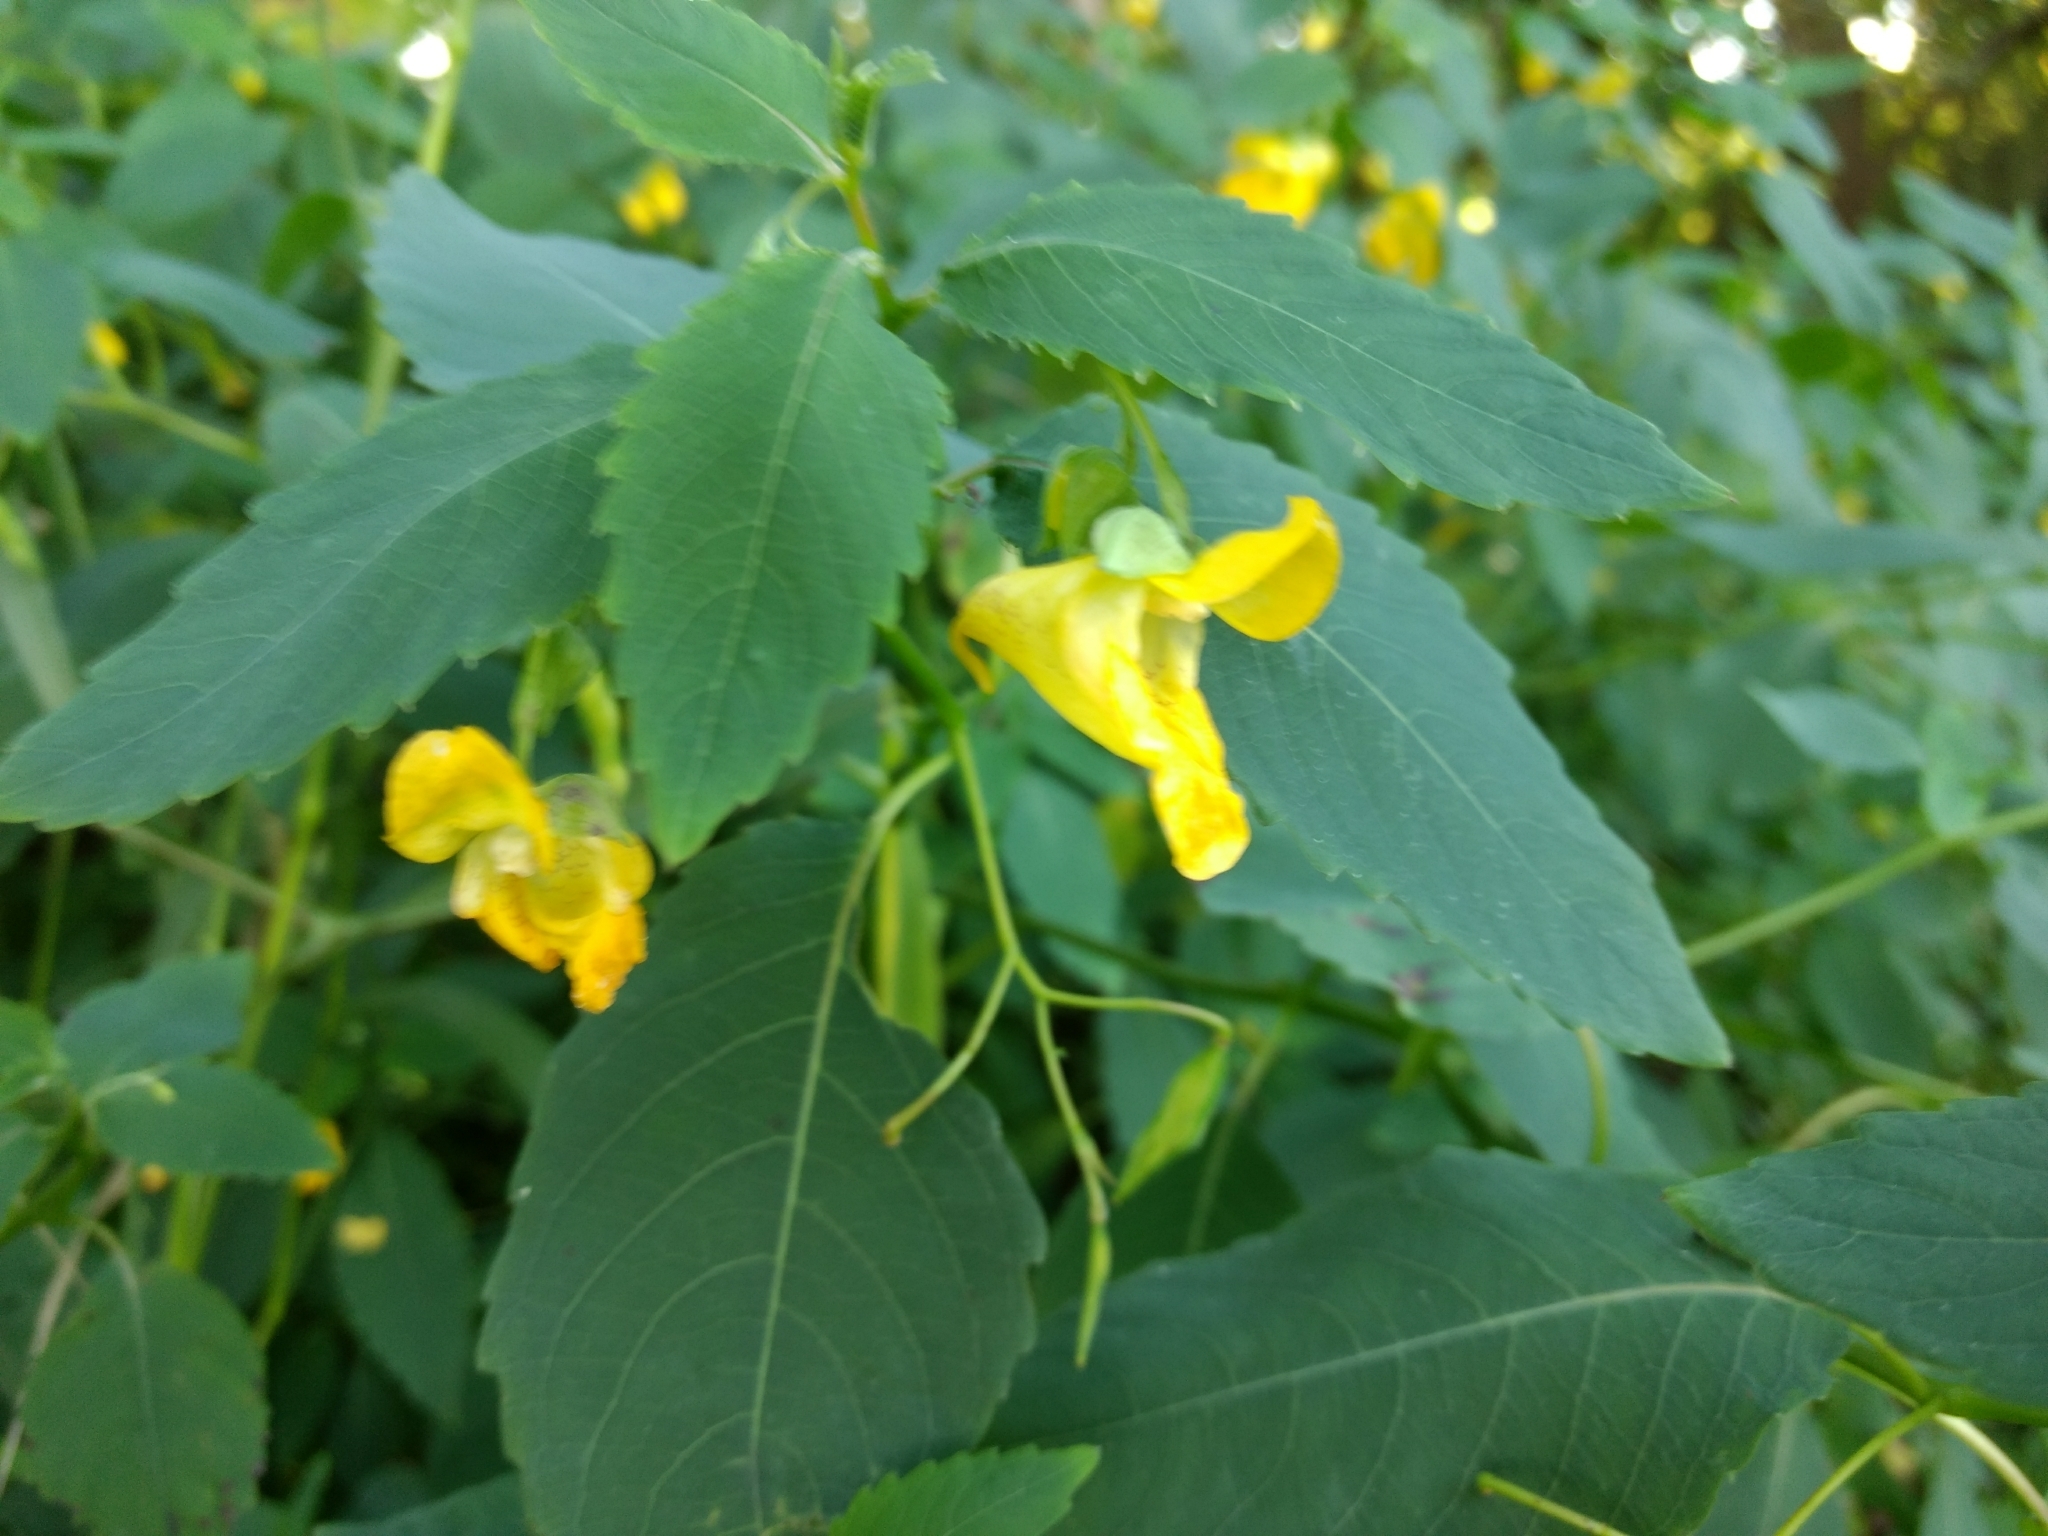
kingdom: Plantae
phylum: Tracheophyta
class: Magnoliopsida
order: Ericales
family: Balsaminaceae
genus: Impatiens
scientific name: Impatiens pallida
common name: Pale snapweed
